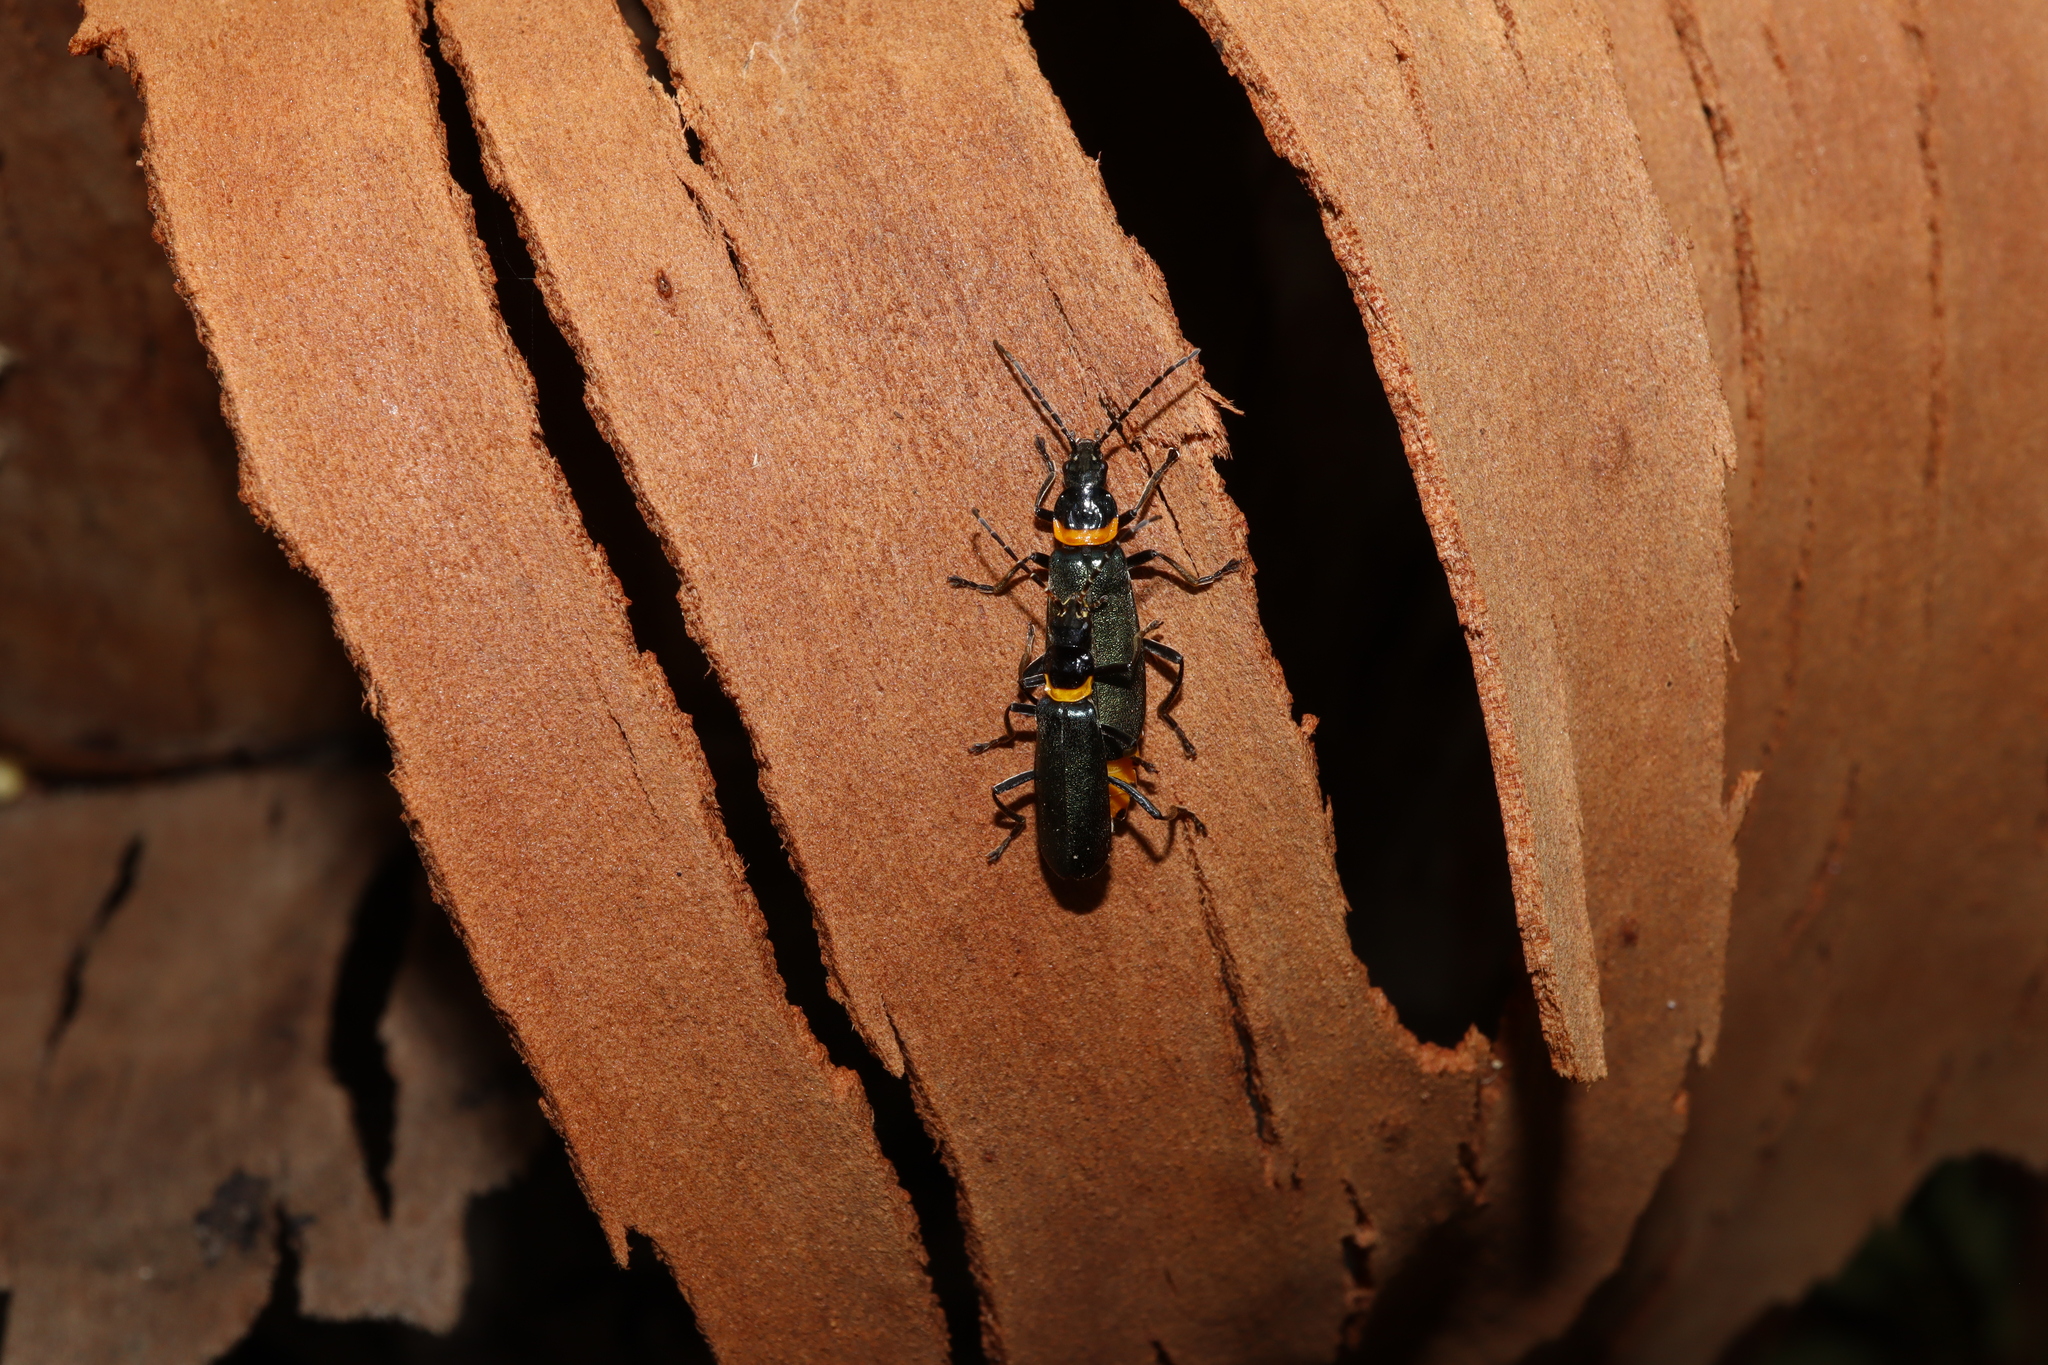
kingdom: Animalia
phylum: Arthropoda
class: Insecta
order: Coleoptera
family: Cantharidae
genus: Chauliognathus
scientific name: Chauliognathus
